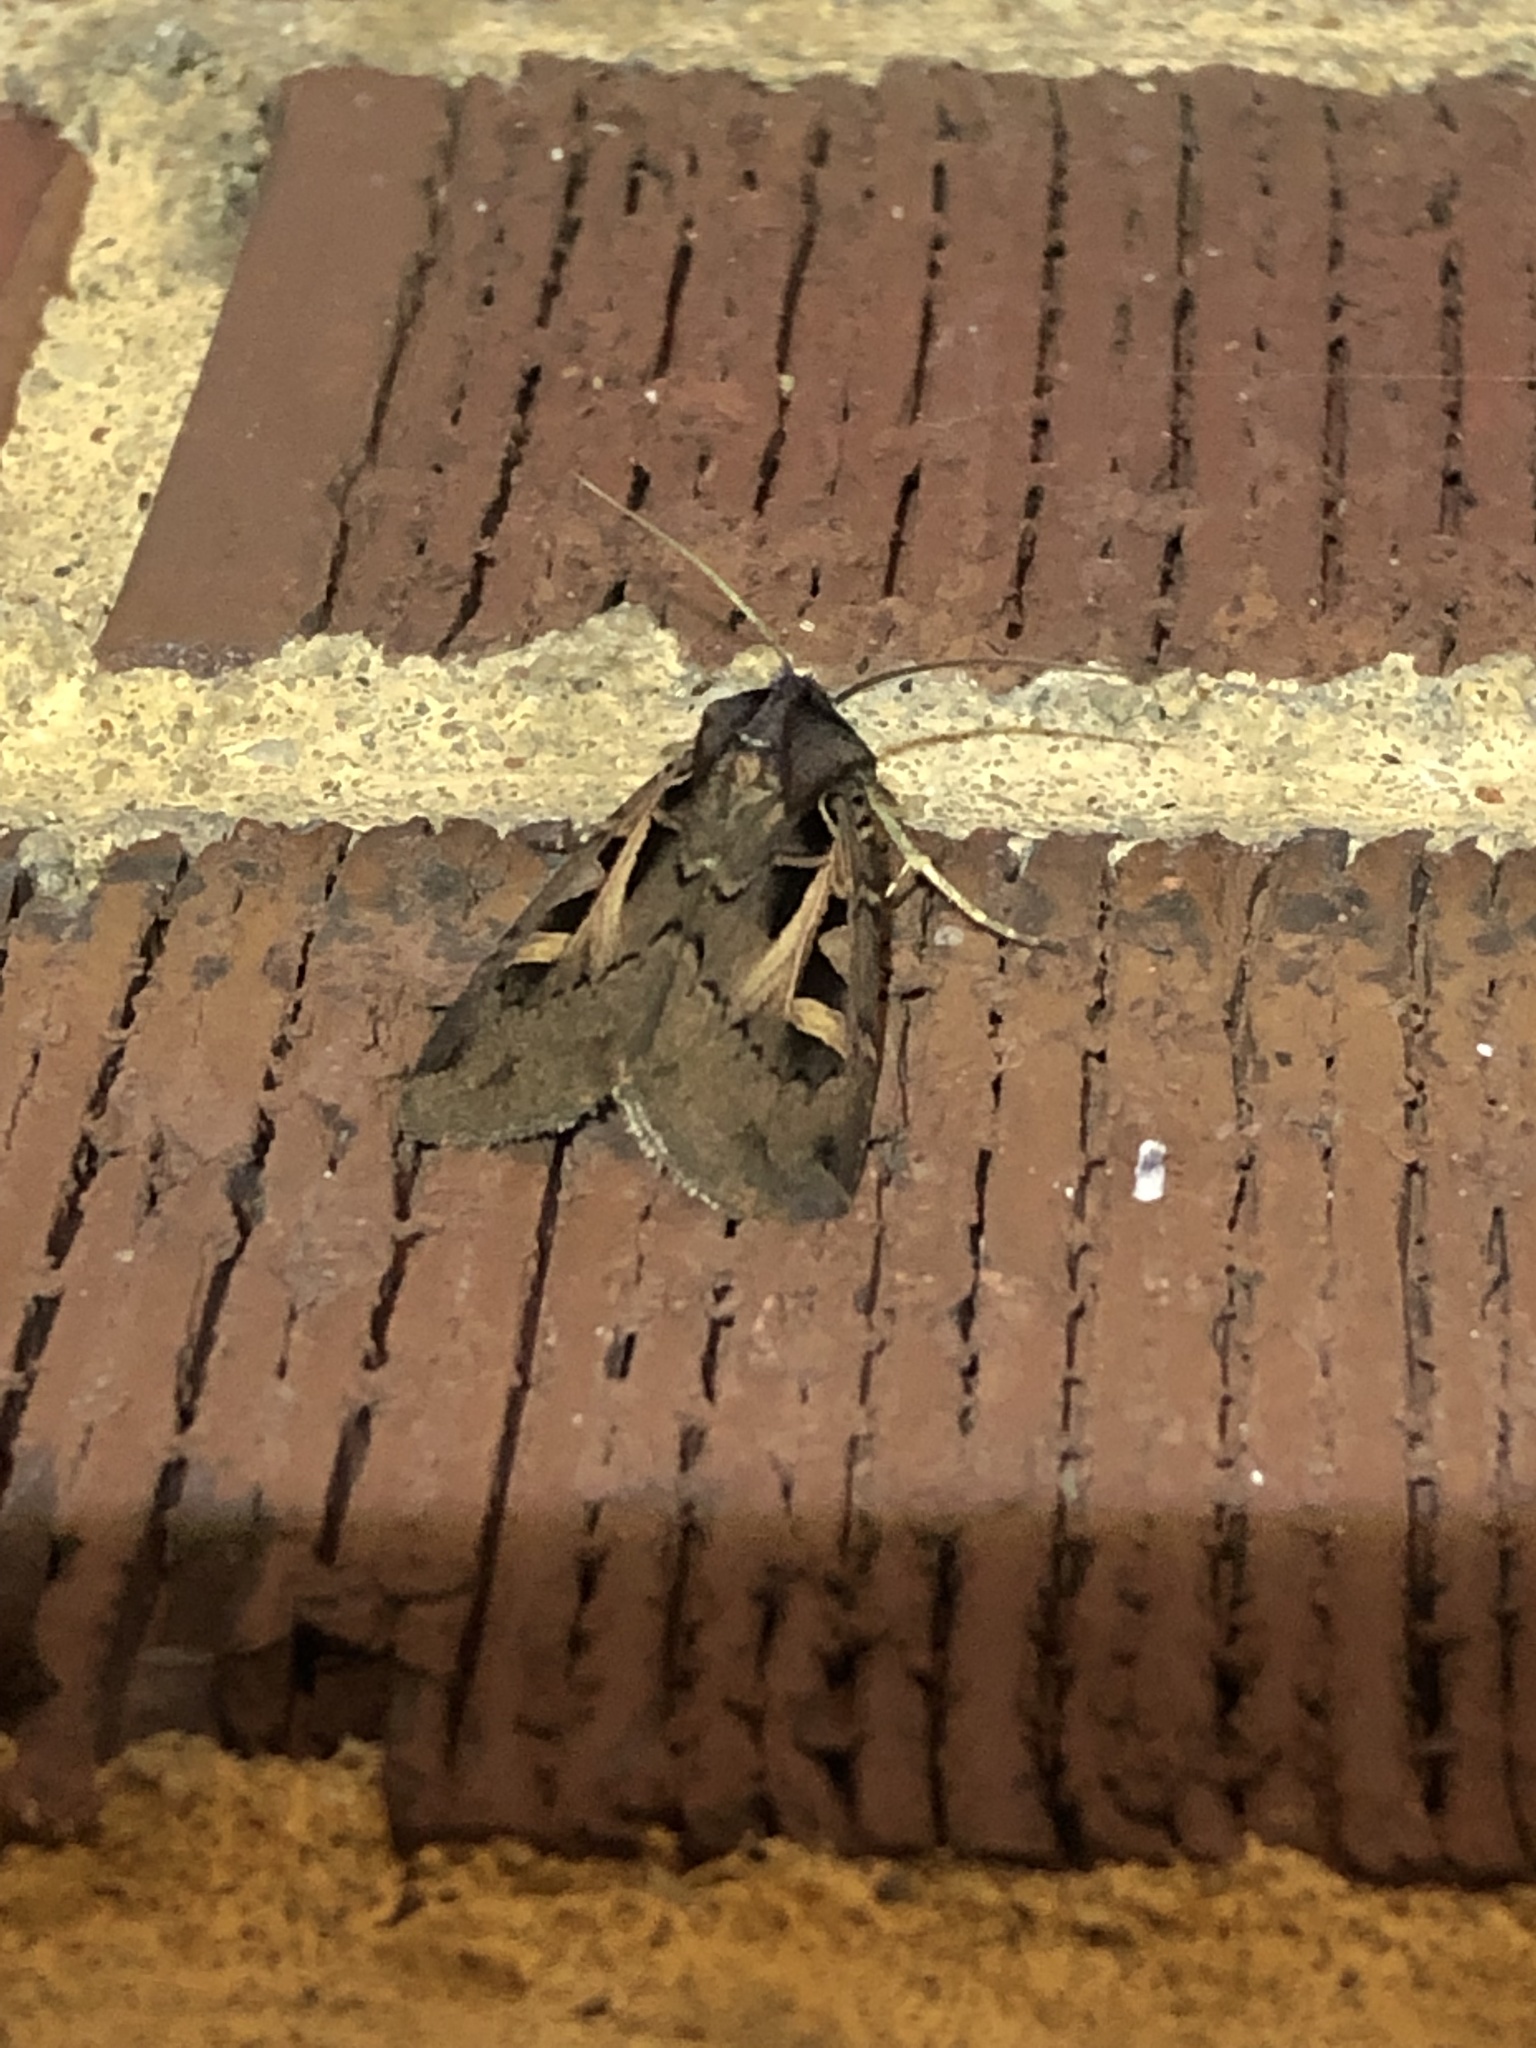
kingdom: Animalia
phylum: Arthropoda
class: Insecta
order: Lepidoptera
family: Noctuidae
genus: Feltia
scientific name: Feltia herilis
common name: Master's dart
